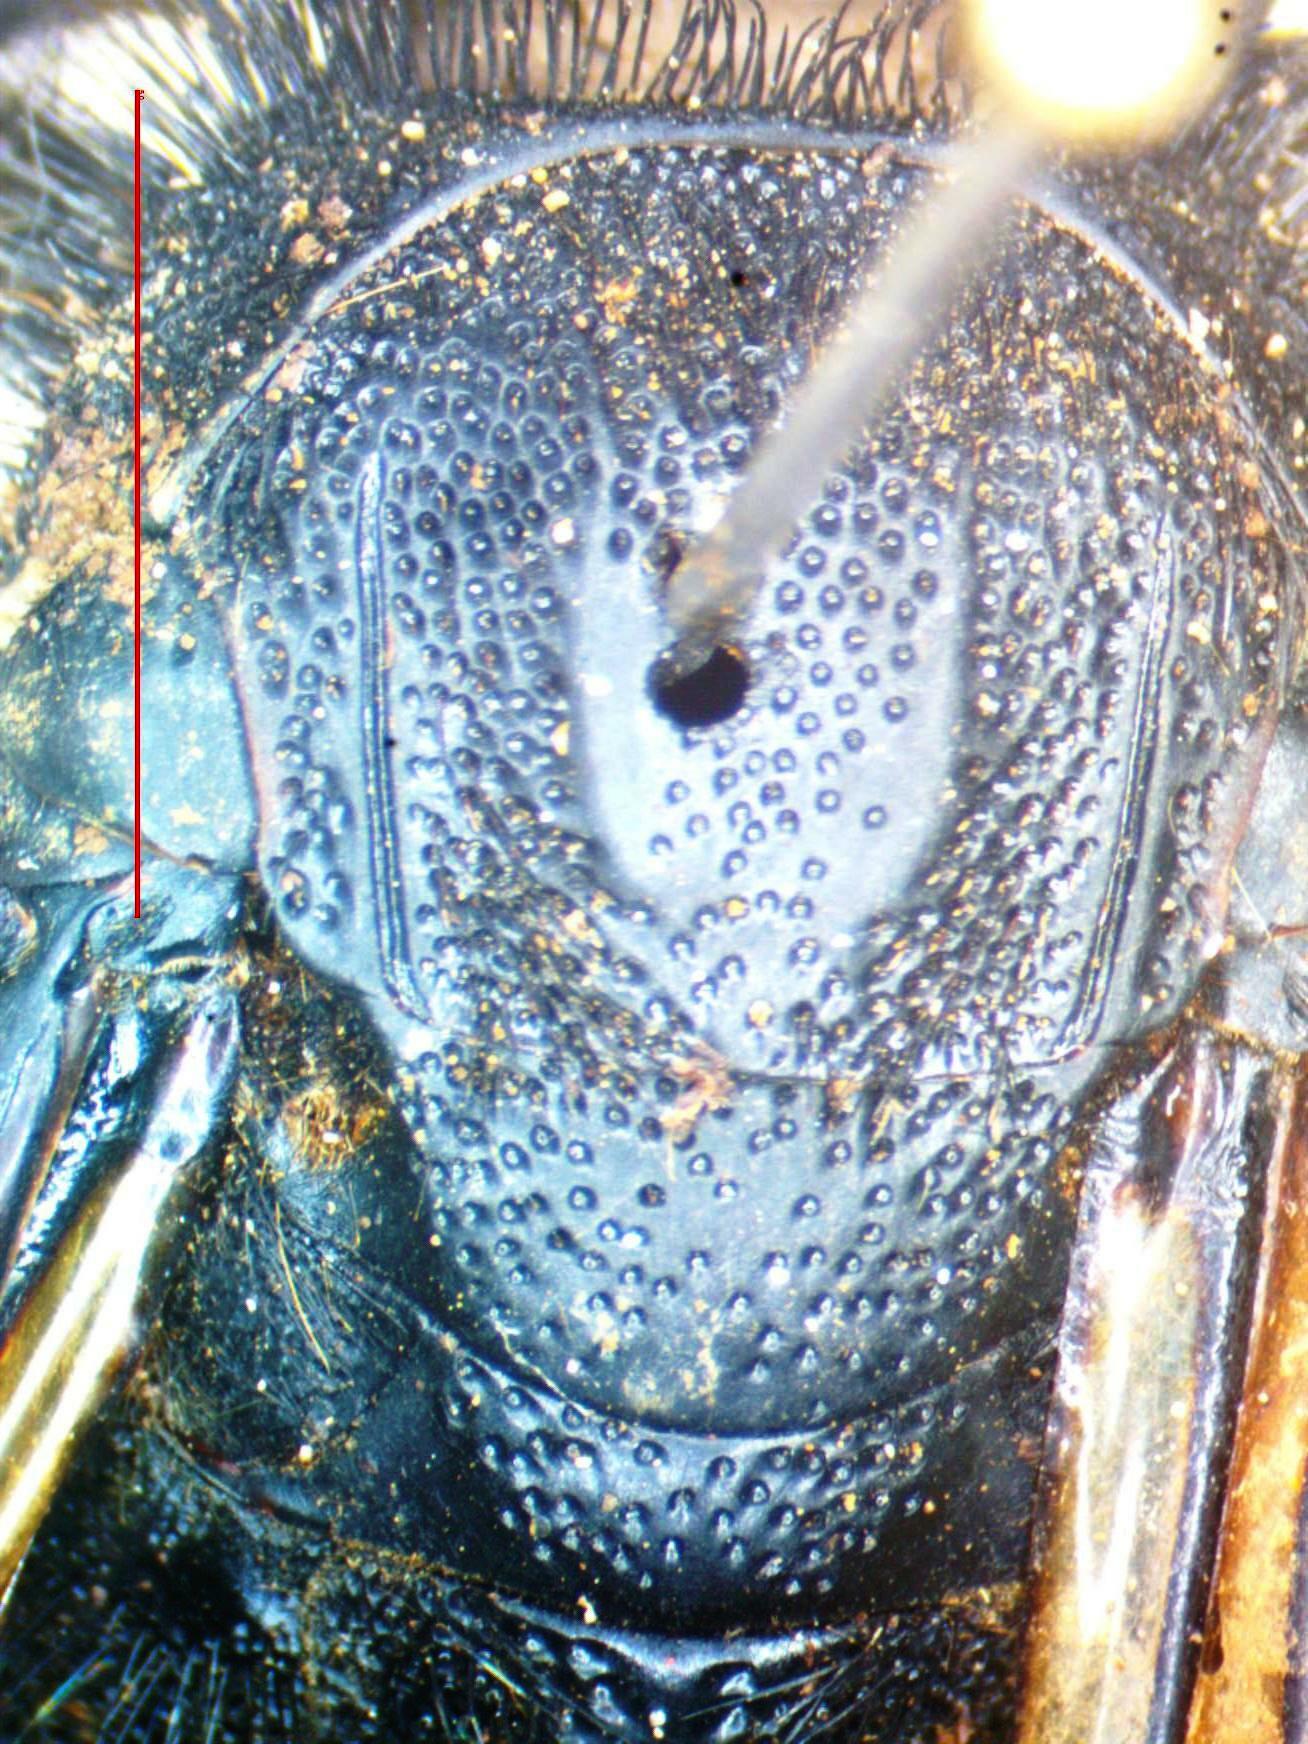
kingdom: Animalia
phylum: Arthropoda
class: Insecta
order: Hymenoptera
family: Scoliidae
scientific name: Scoliidae
